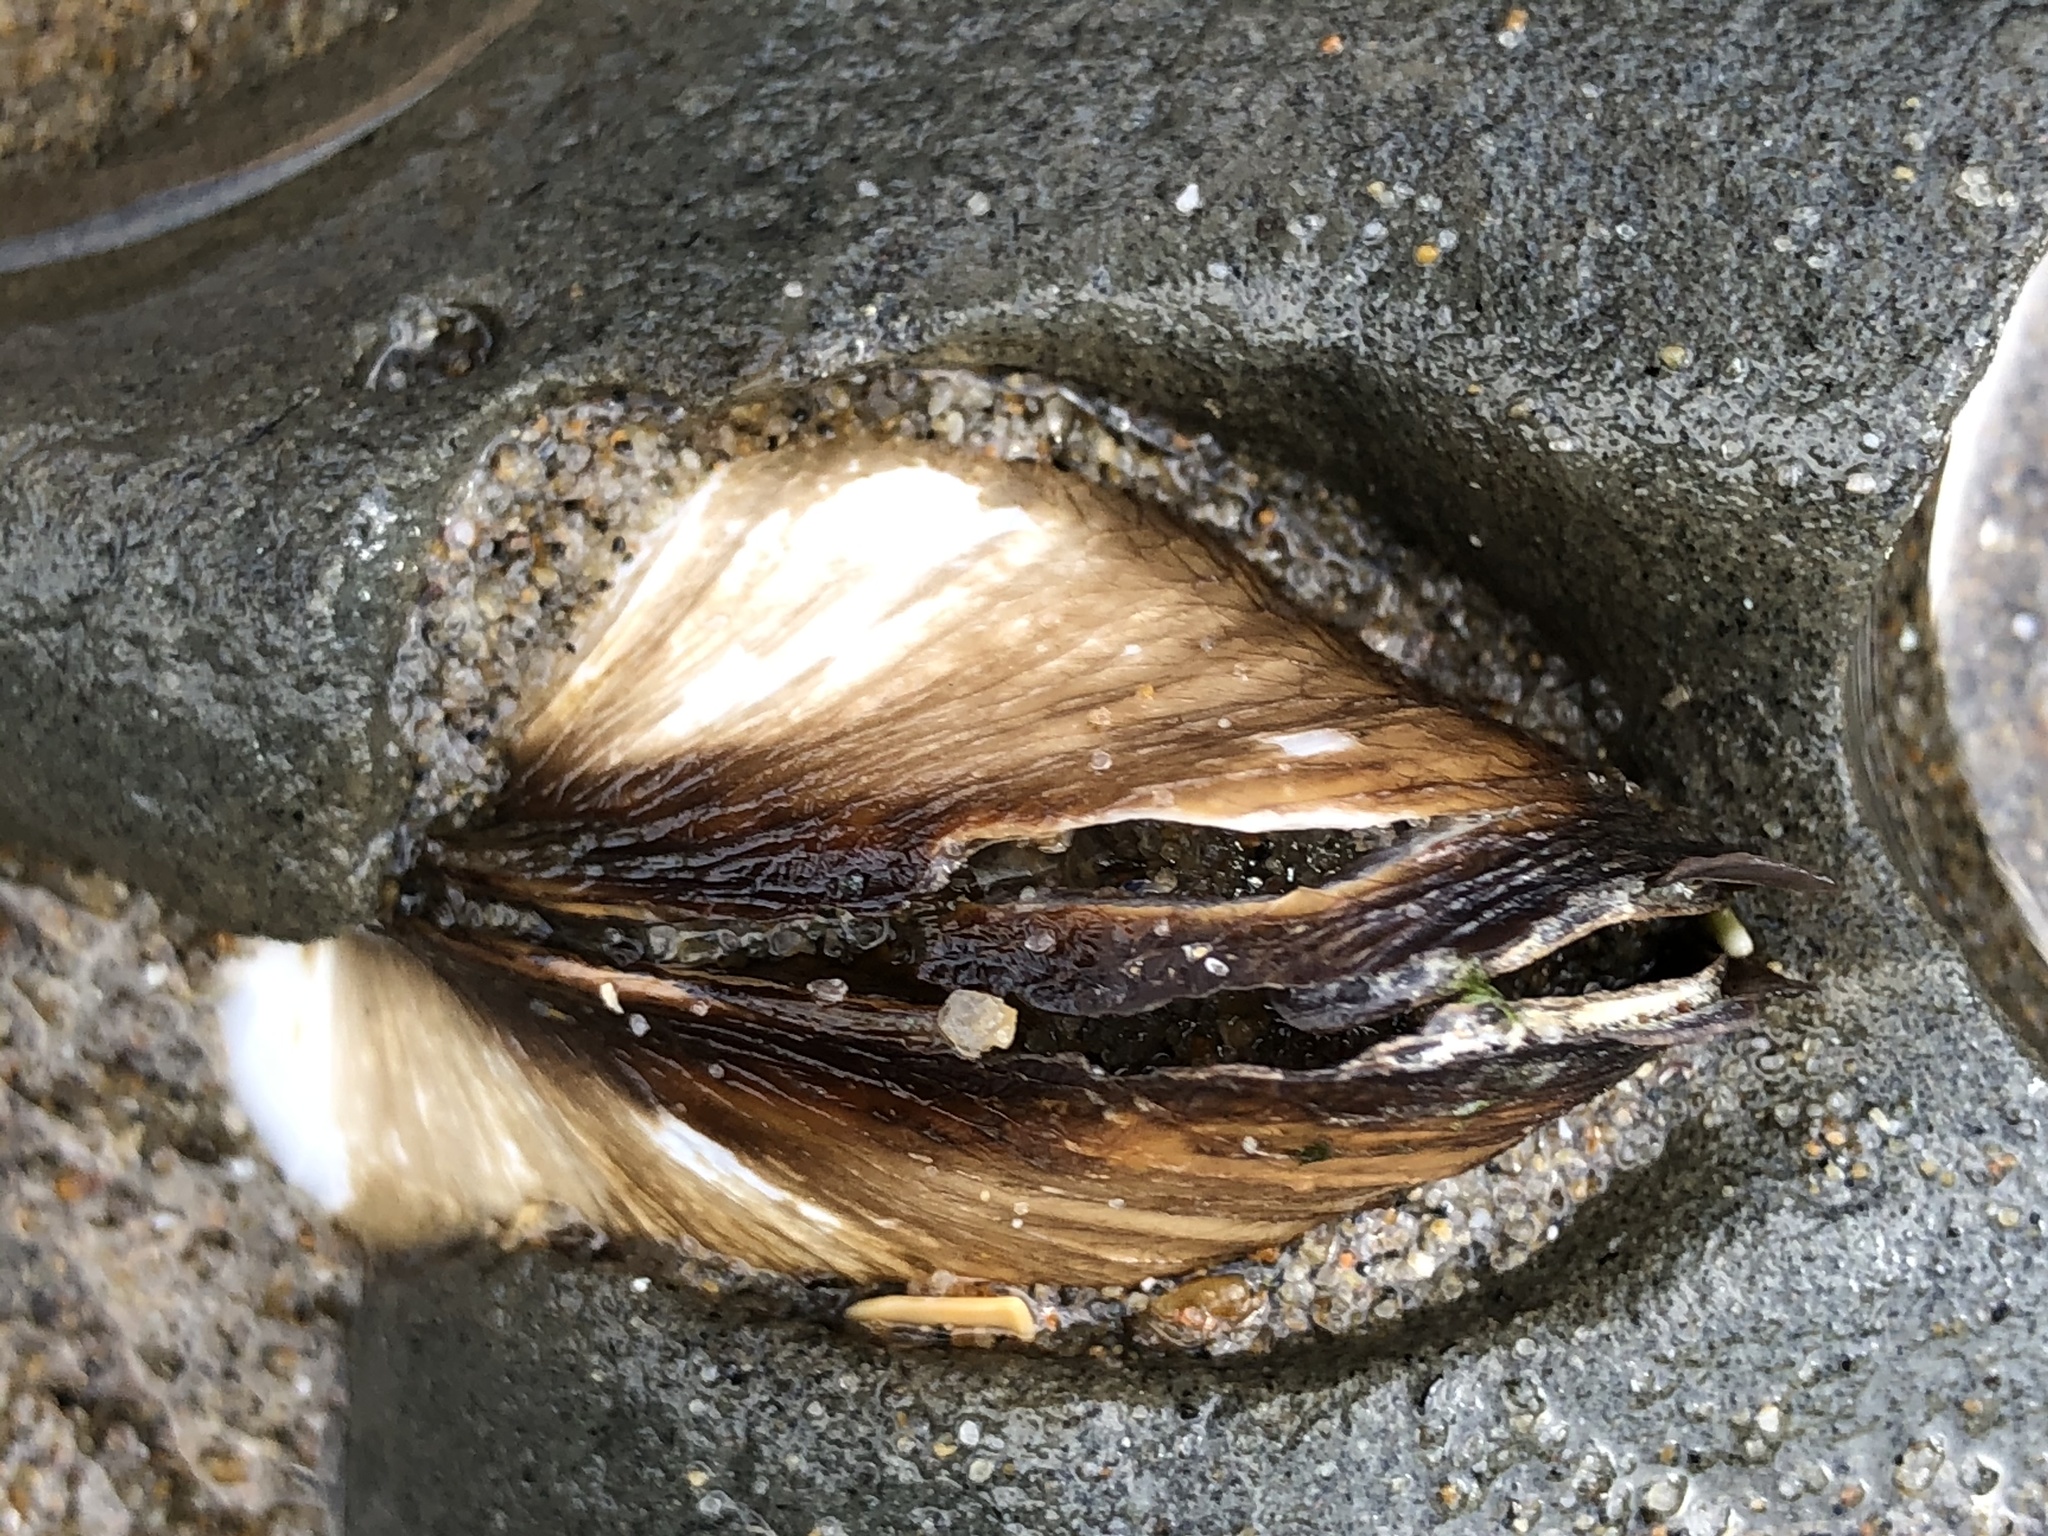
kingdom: Animalia
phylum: Mollusca
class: Bivalvia
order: Myida
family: Pholadidae
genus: Parapholas
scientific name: Parapholas californica
